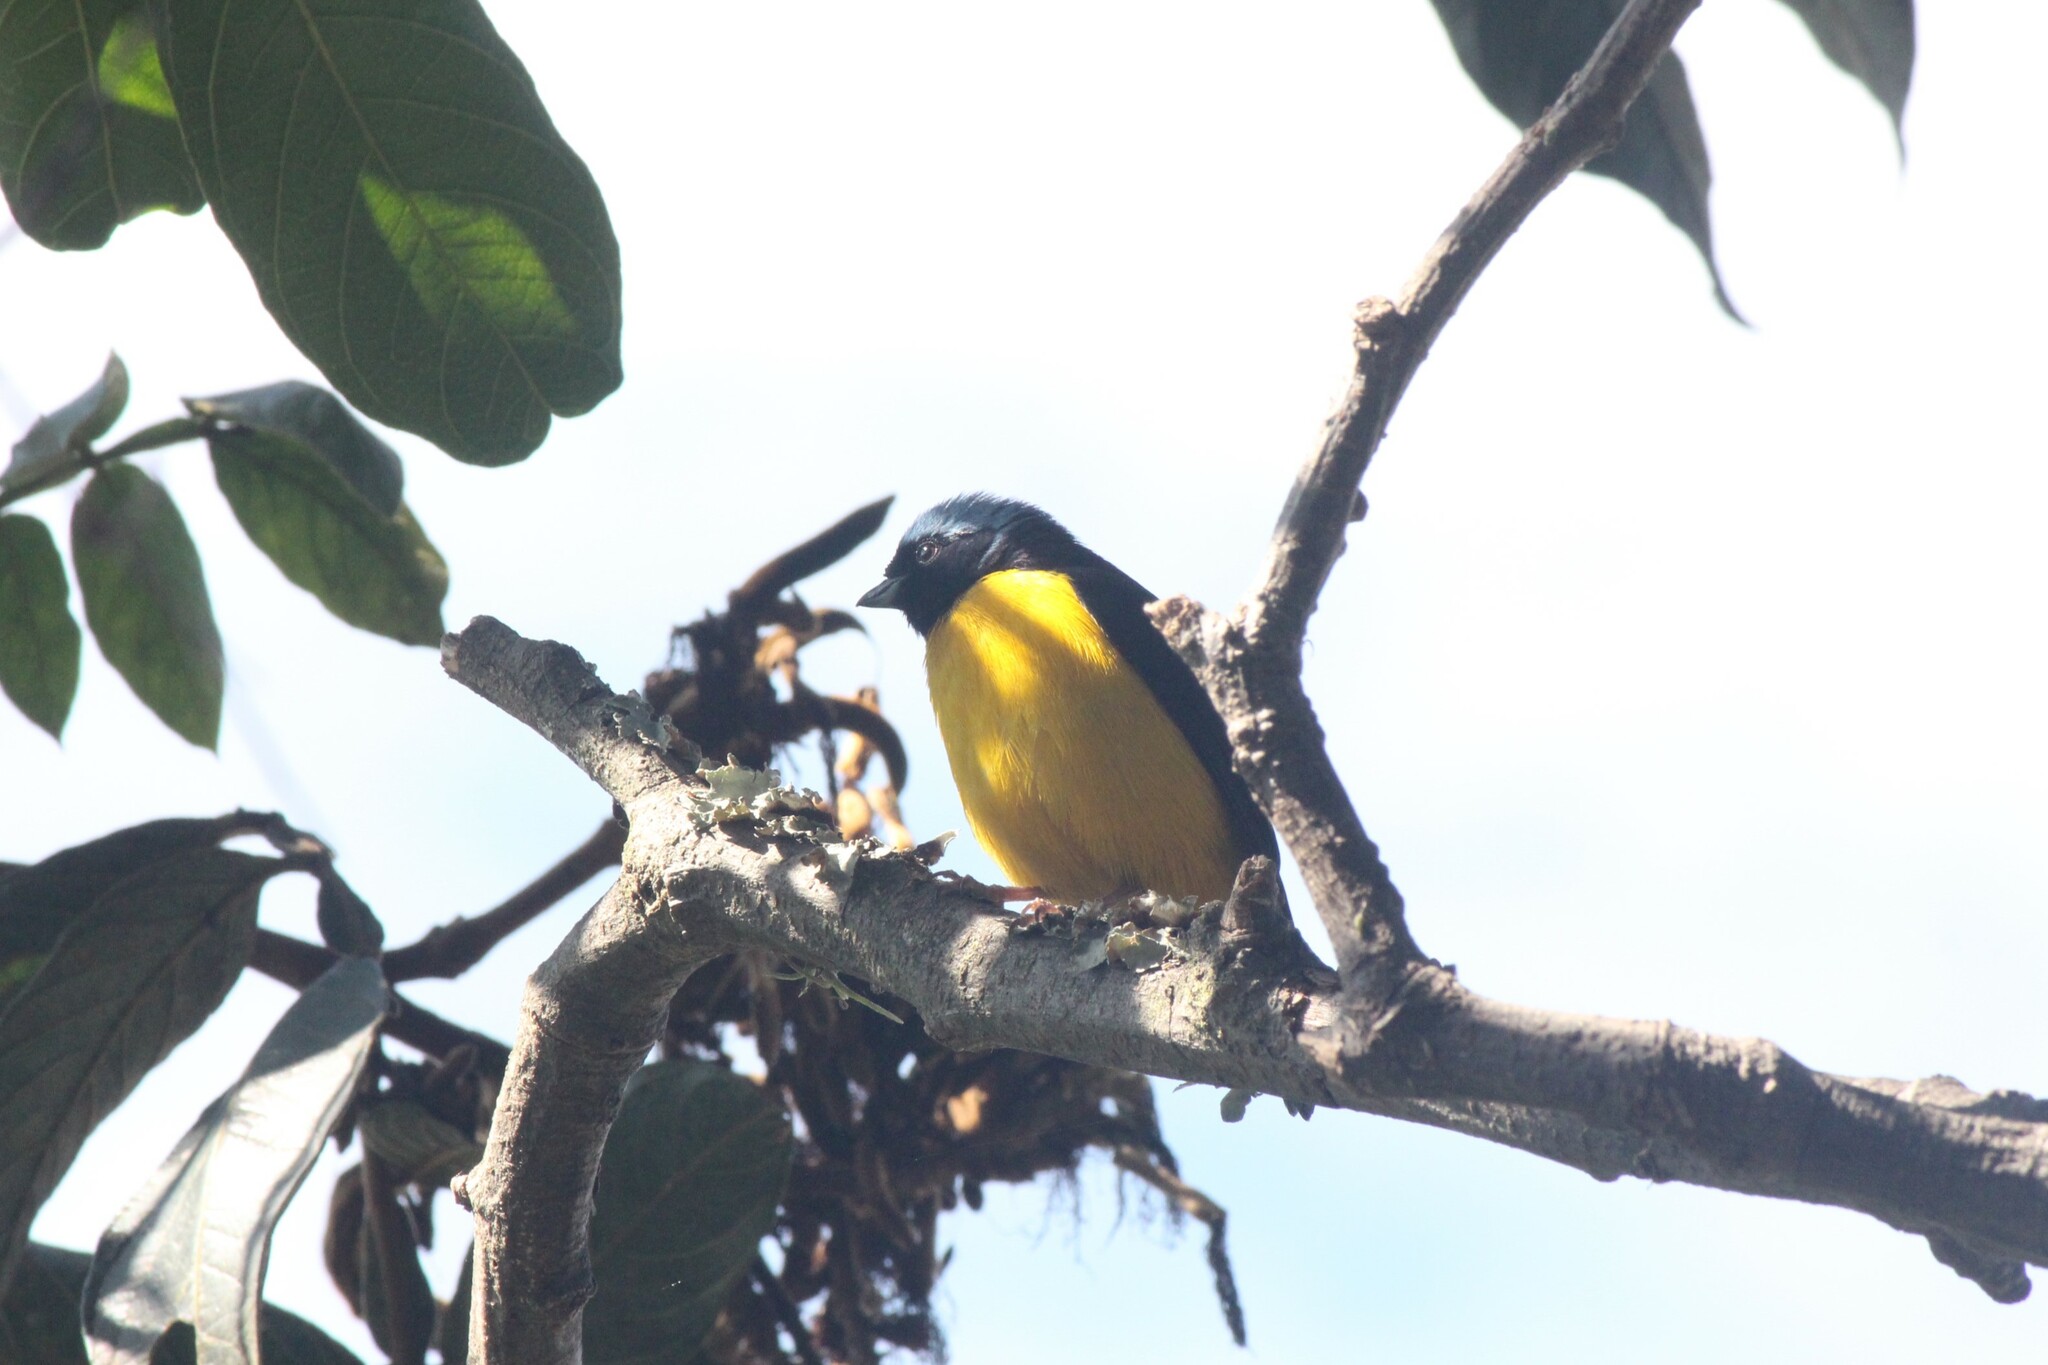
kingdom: Animalia
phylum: Chordata
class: Aves
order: Passeriformes
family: Fringillidae
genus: Euphonia
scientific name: Euphonia cyanocephala
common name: Golden-rumped euphonia
